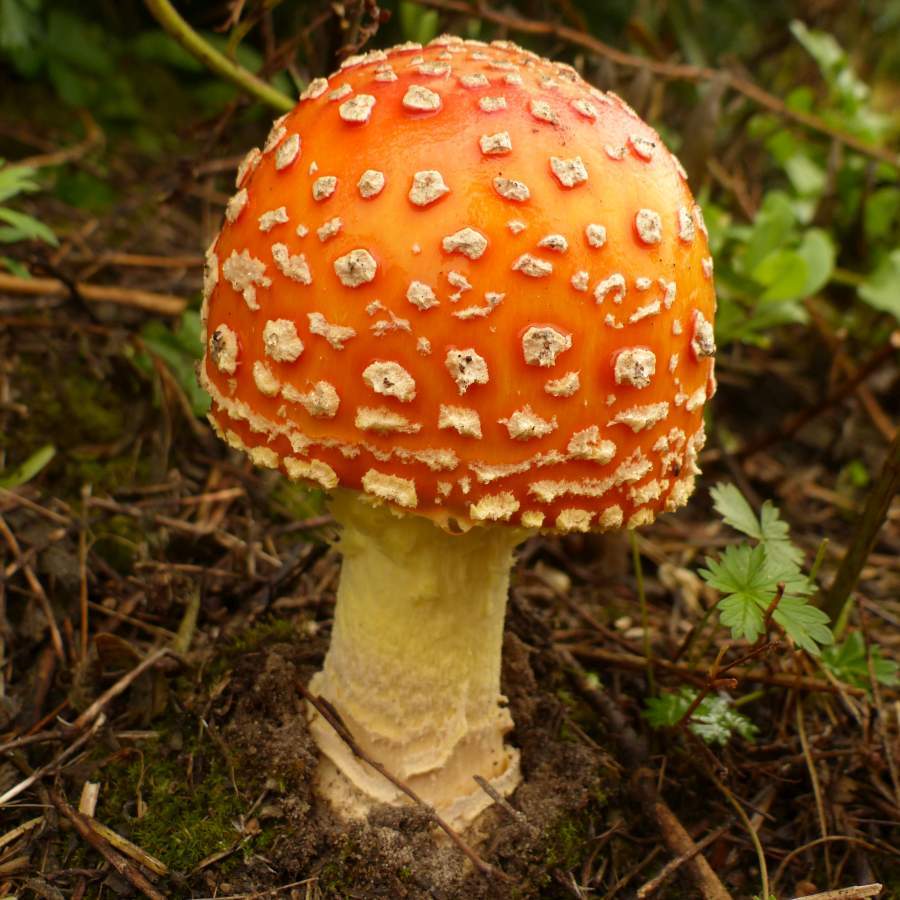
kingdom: Fungi
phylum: Basidiomycota
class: Agaricomycetes
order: Agaricales
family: Amanitaceae
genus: Amanita
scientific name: Amanita muscaria
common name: Fly agaric
